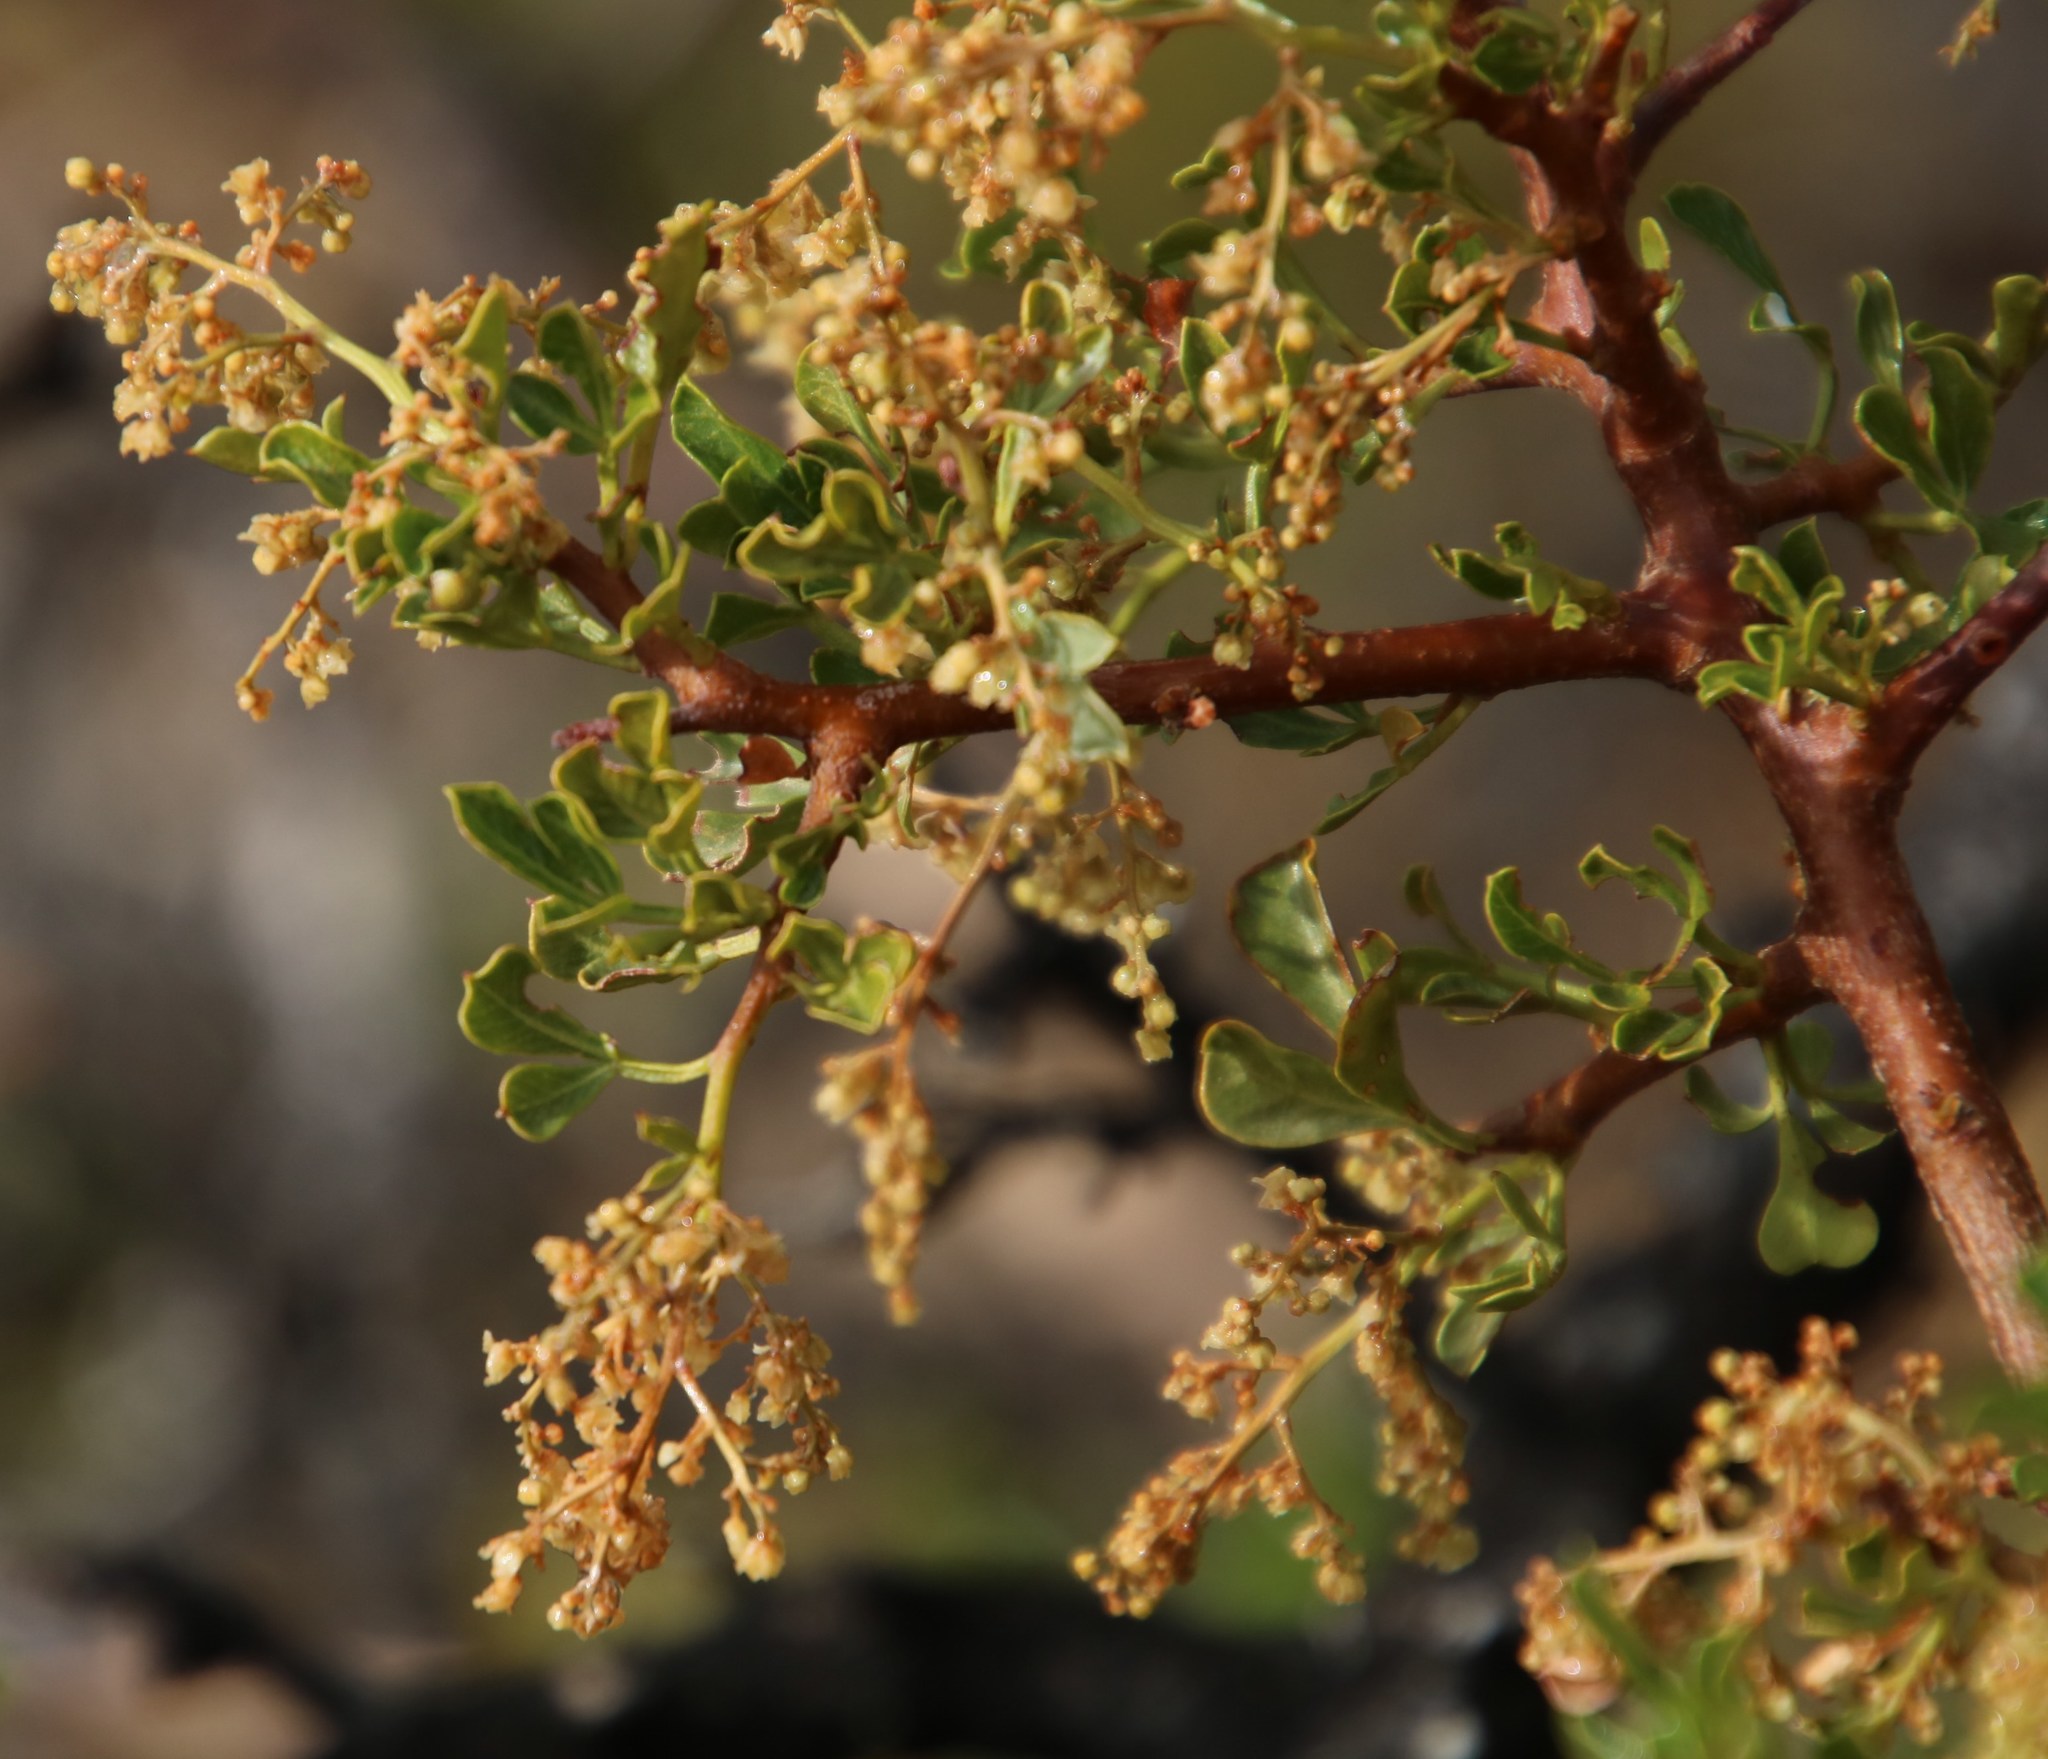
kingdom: Plantae
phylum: Tracheophyta
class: Magnoliopsida
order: Sapindales
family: Anacardiaceae
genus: Searsia
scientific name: Searsia burchellii
